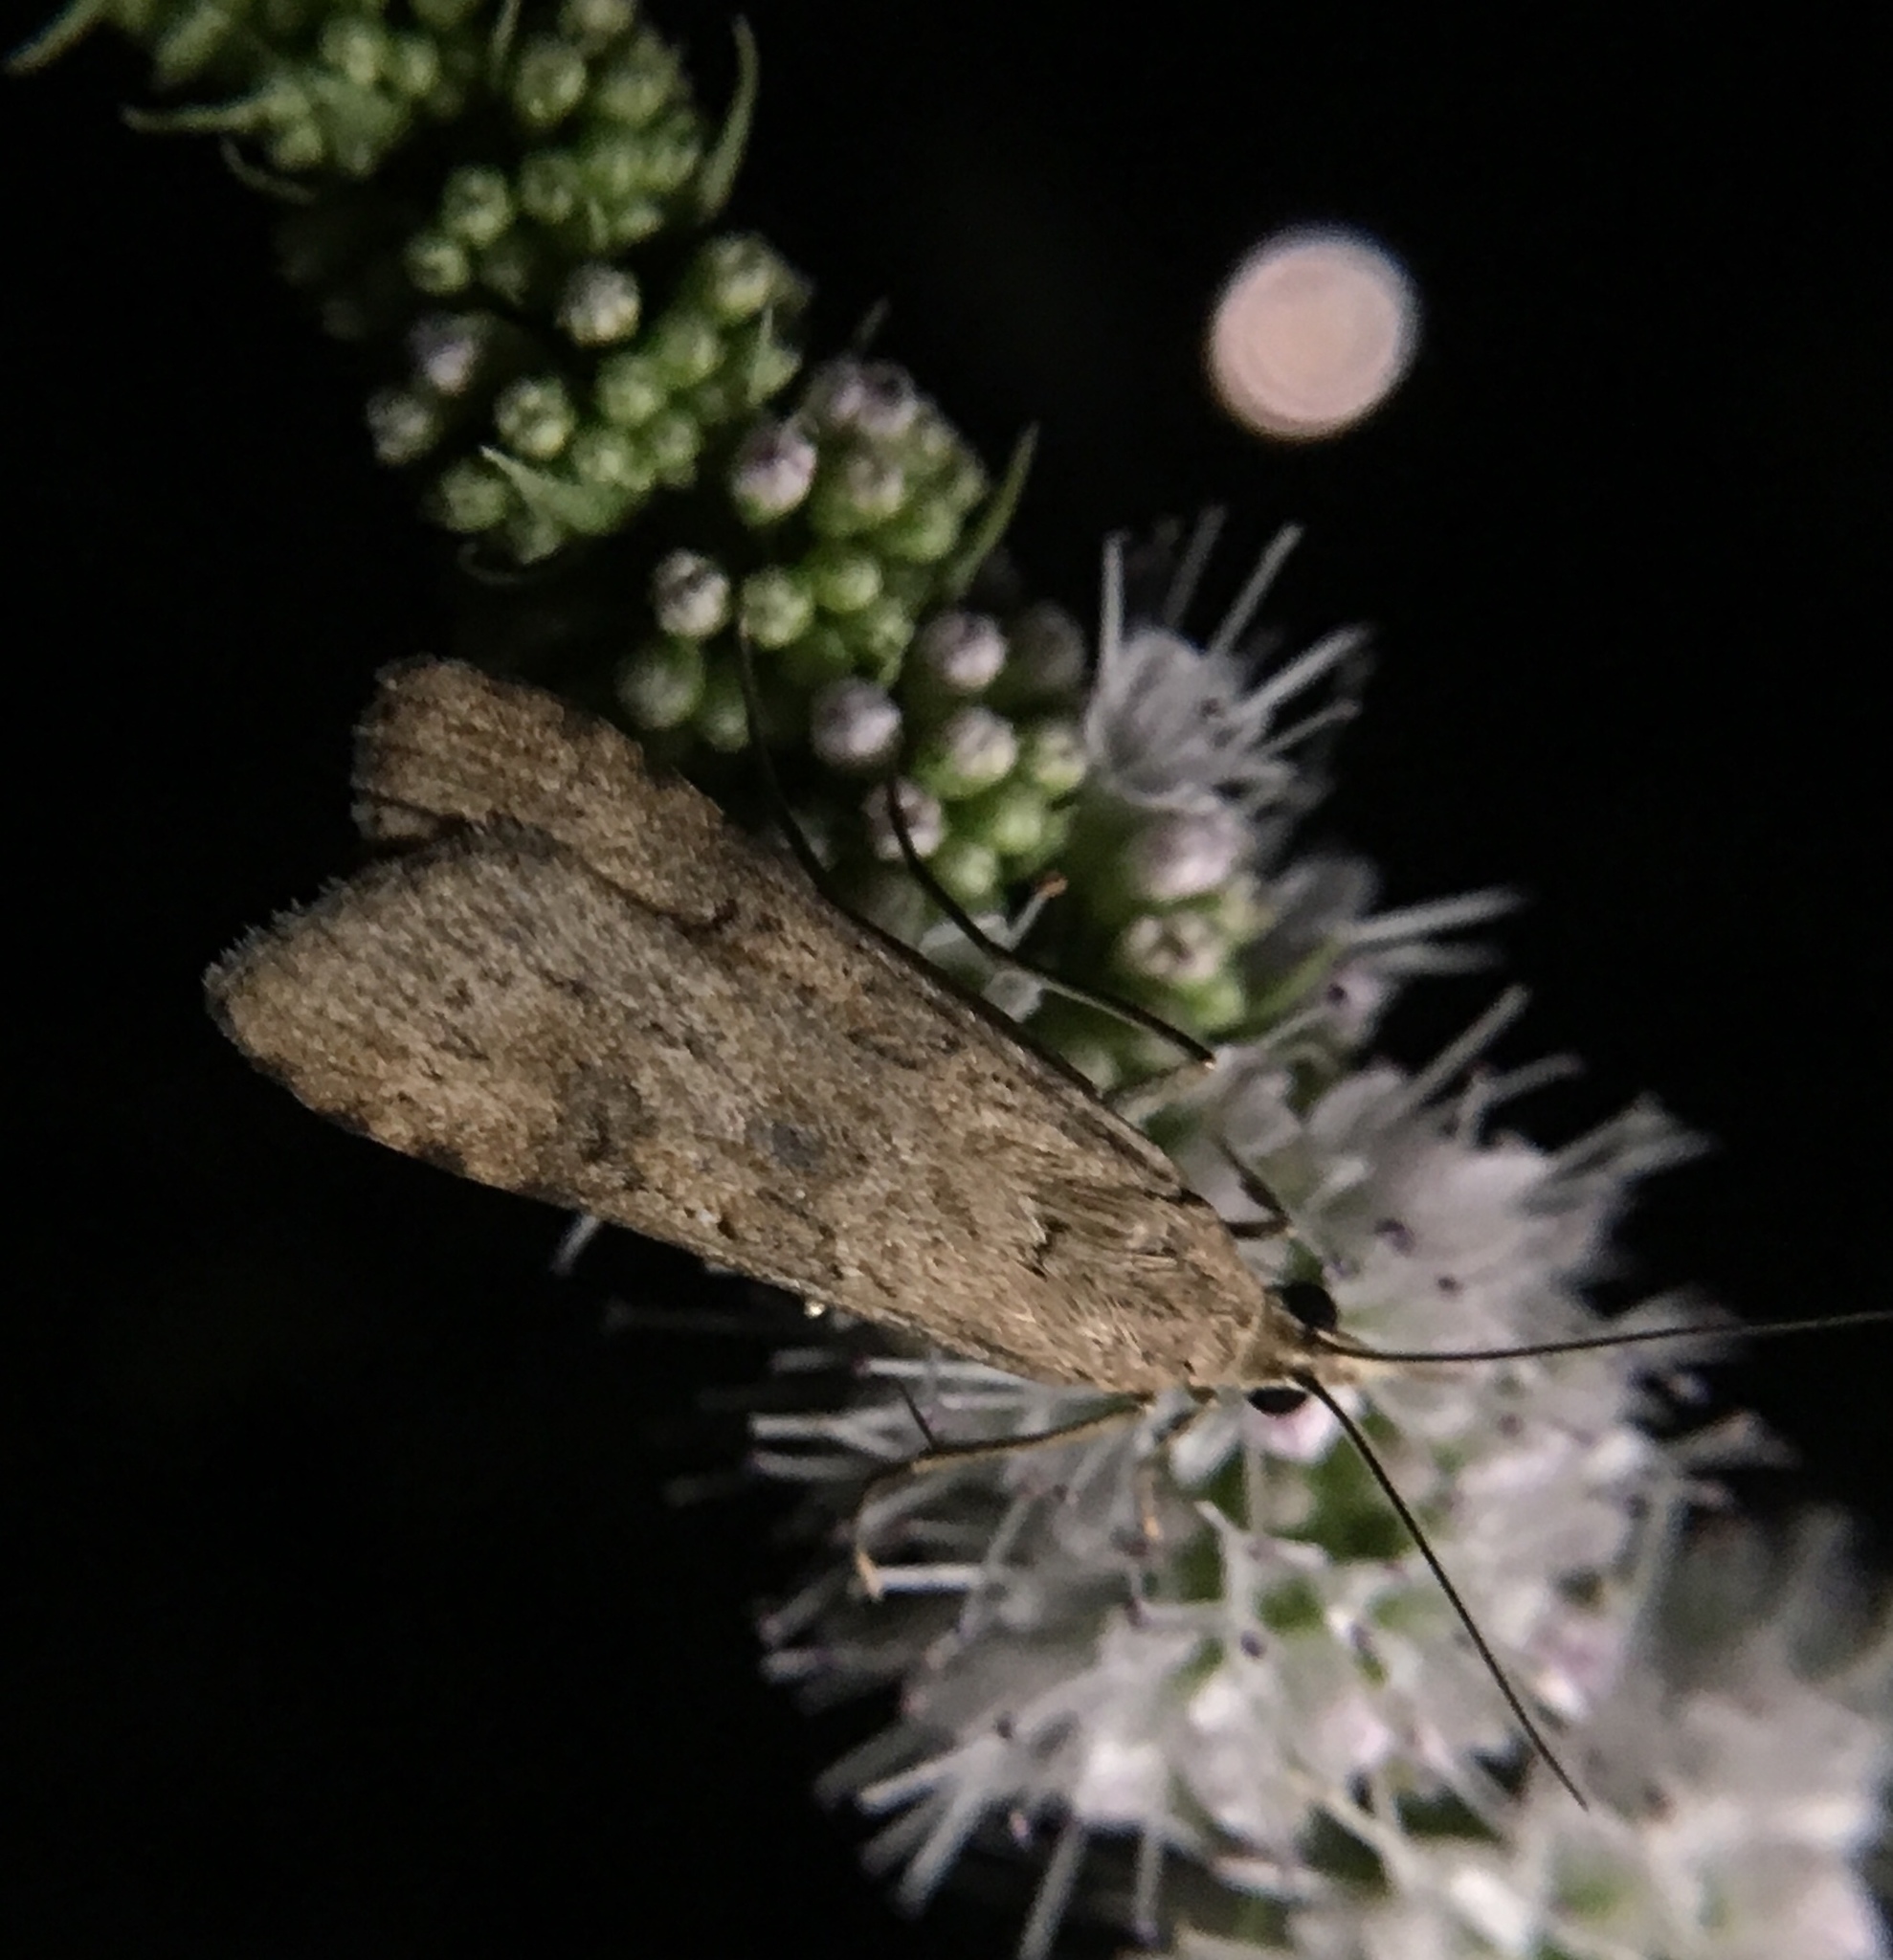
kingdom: Animalia
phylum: Arthropoda
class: Insecta
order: Lepidoptera
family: Crambidae
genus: Nomophila
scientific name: Nomophila nearctica
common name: American rush veneer
